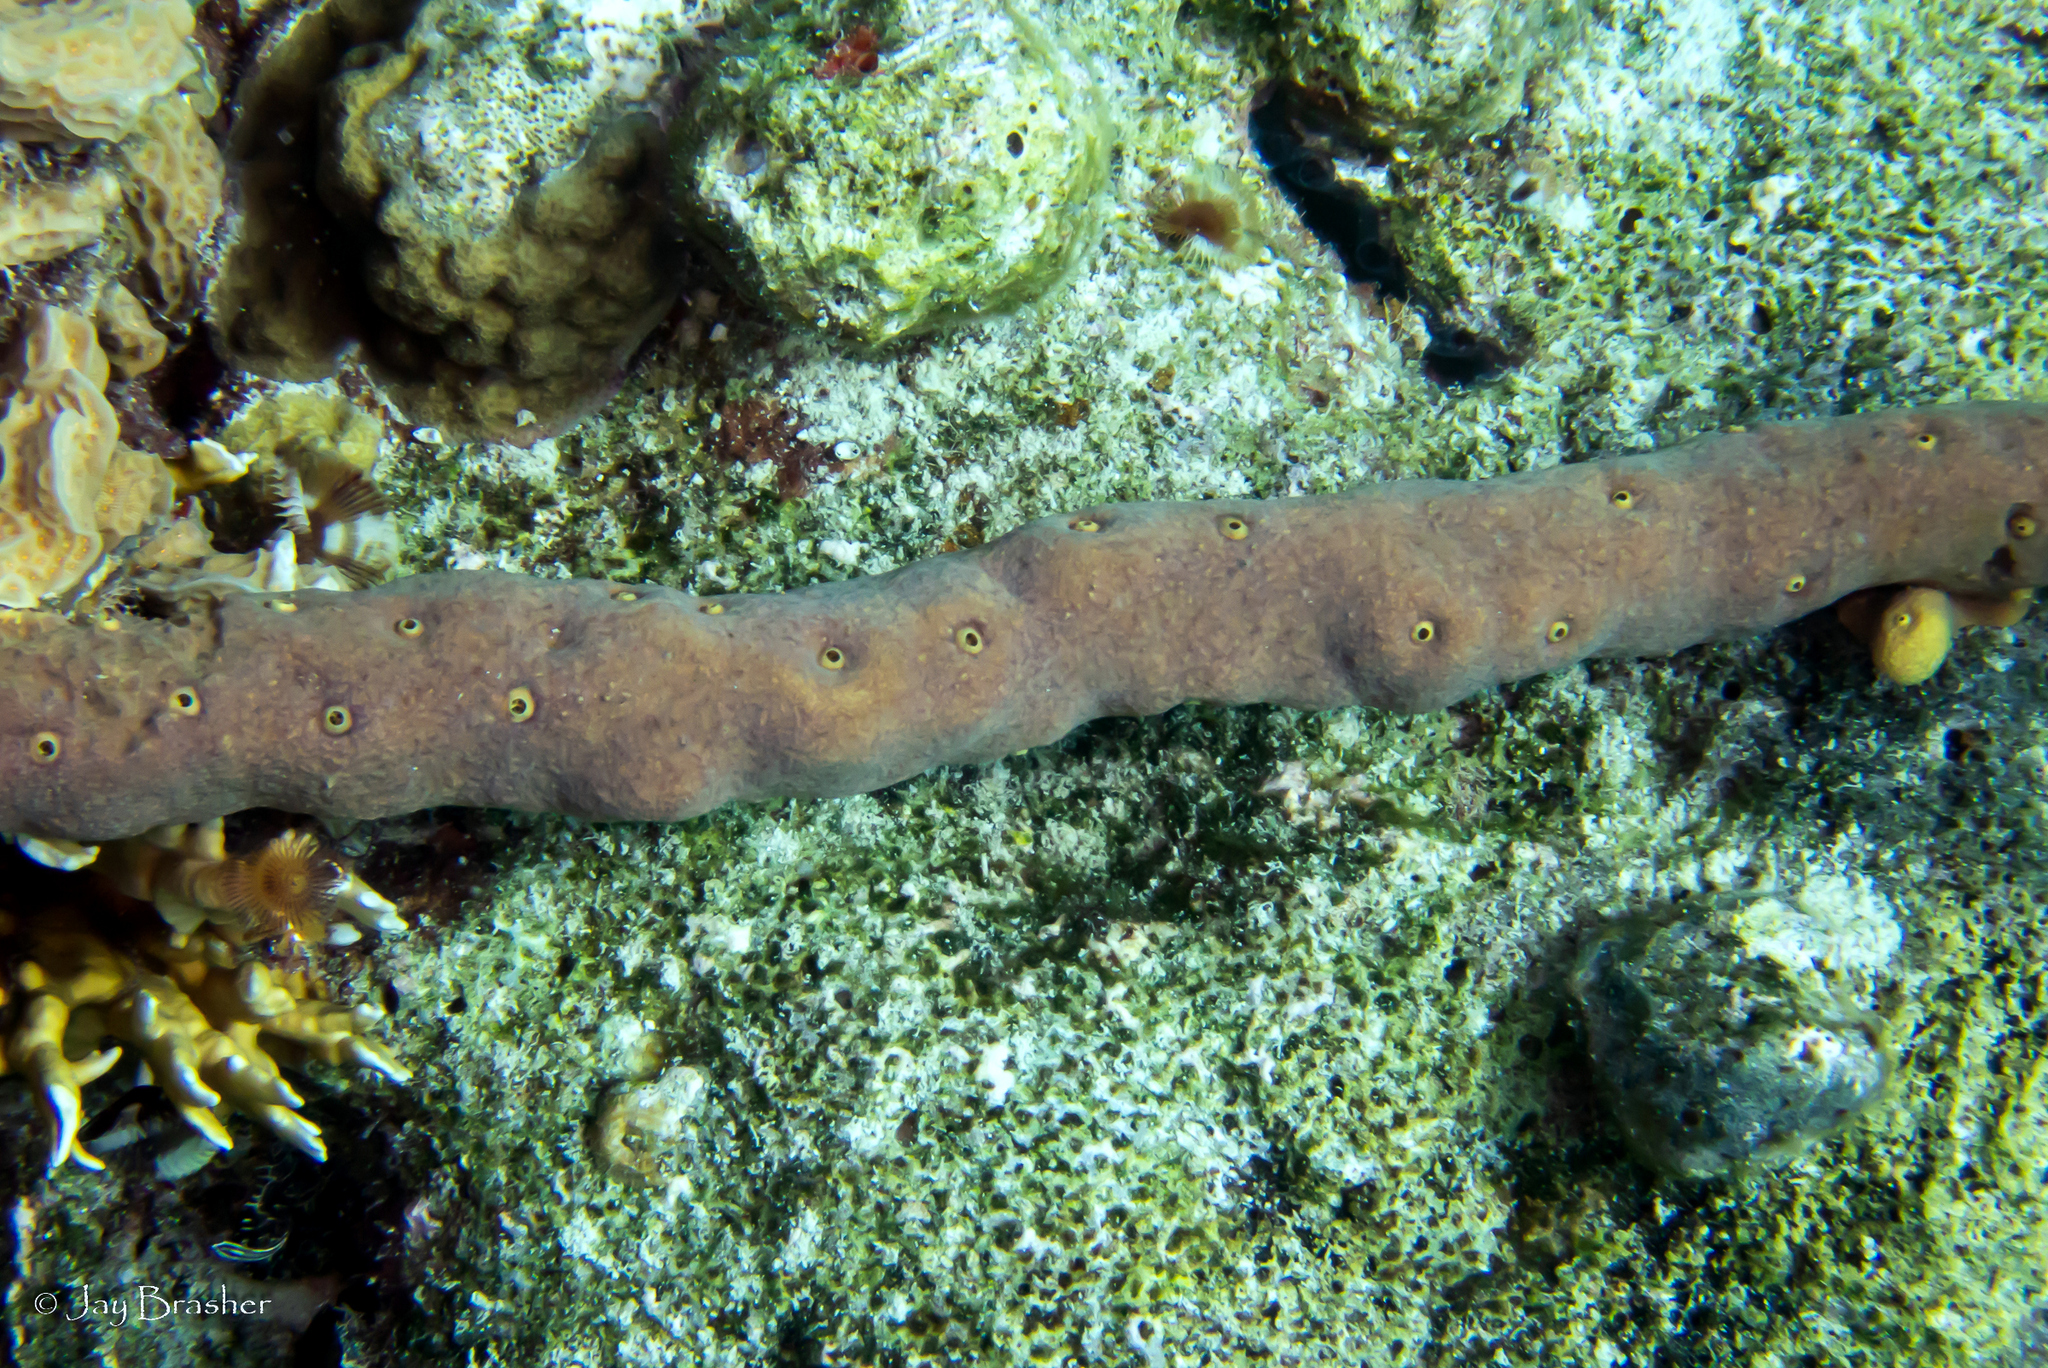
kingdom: Animalia
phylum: Porifera
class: Demospongiae
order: Verongiida
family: Aplysinidae
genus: Aplysina
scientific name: Aplysina cauliformis
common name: Branching candle sponge
